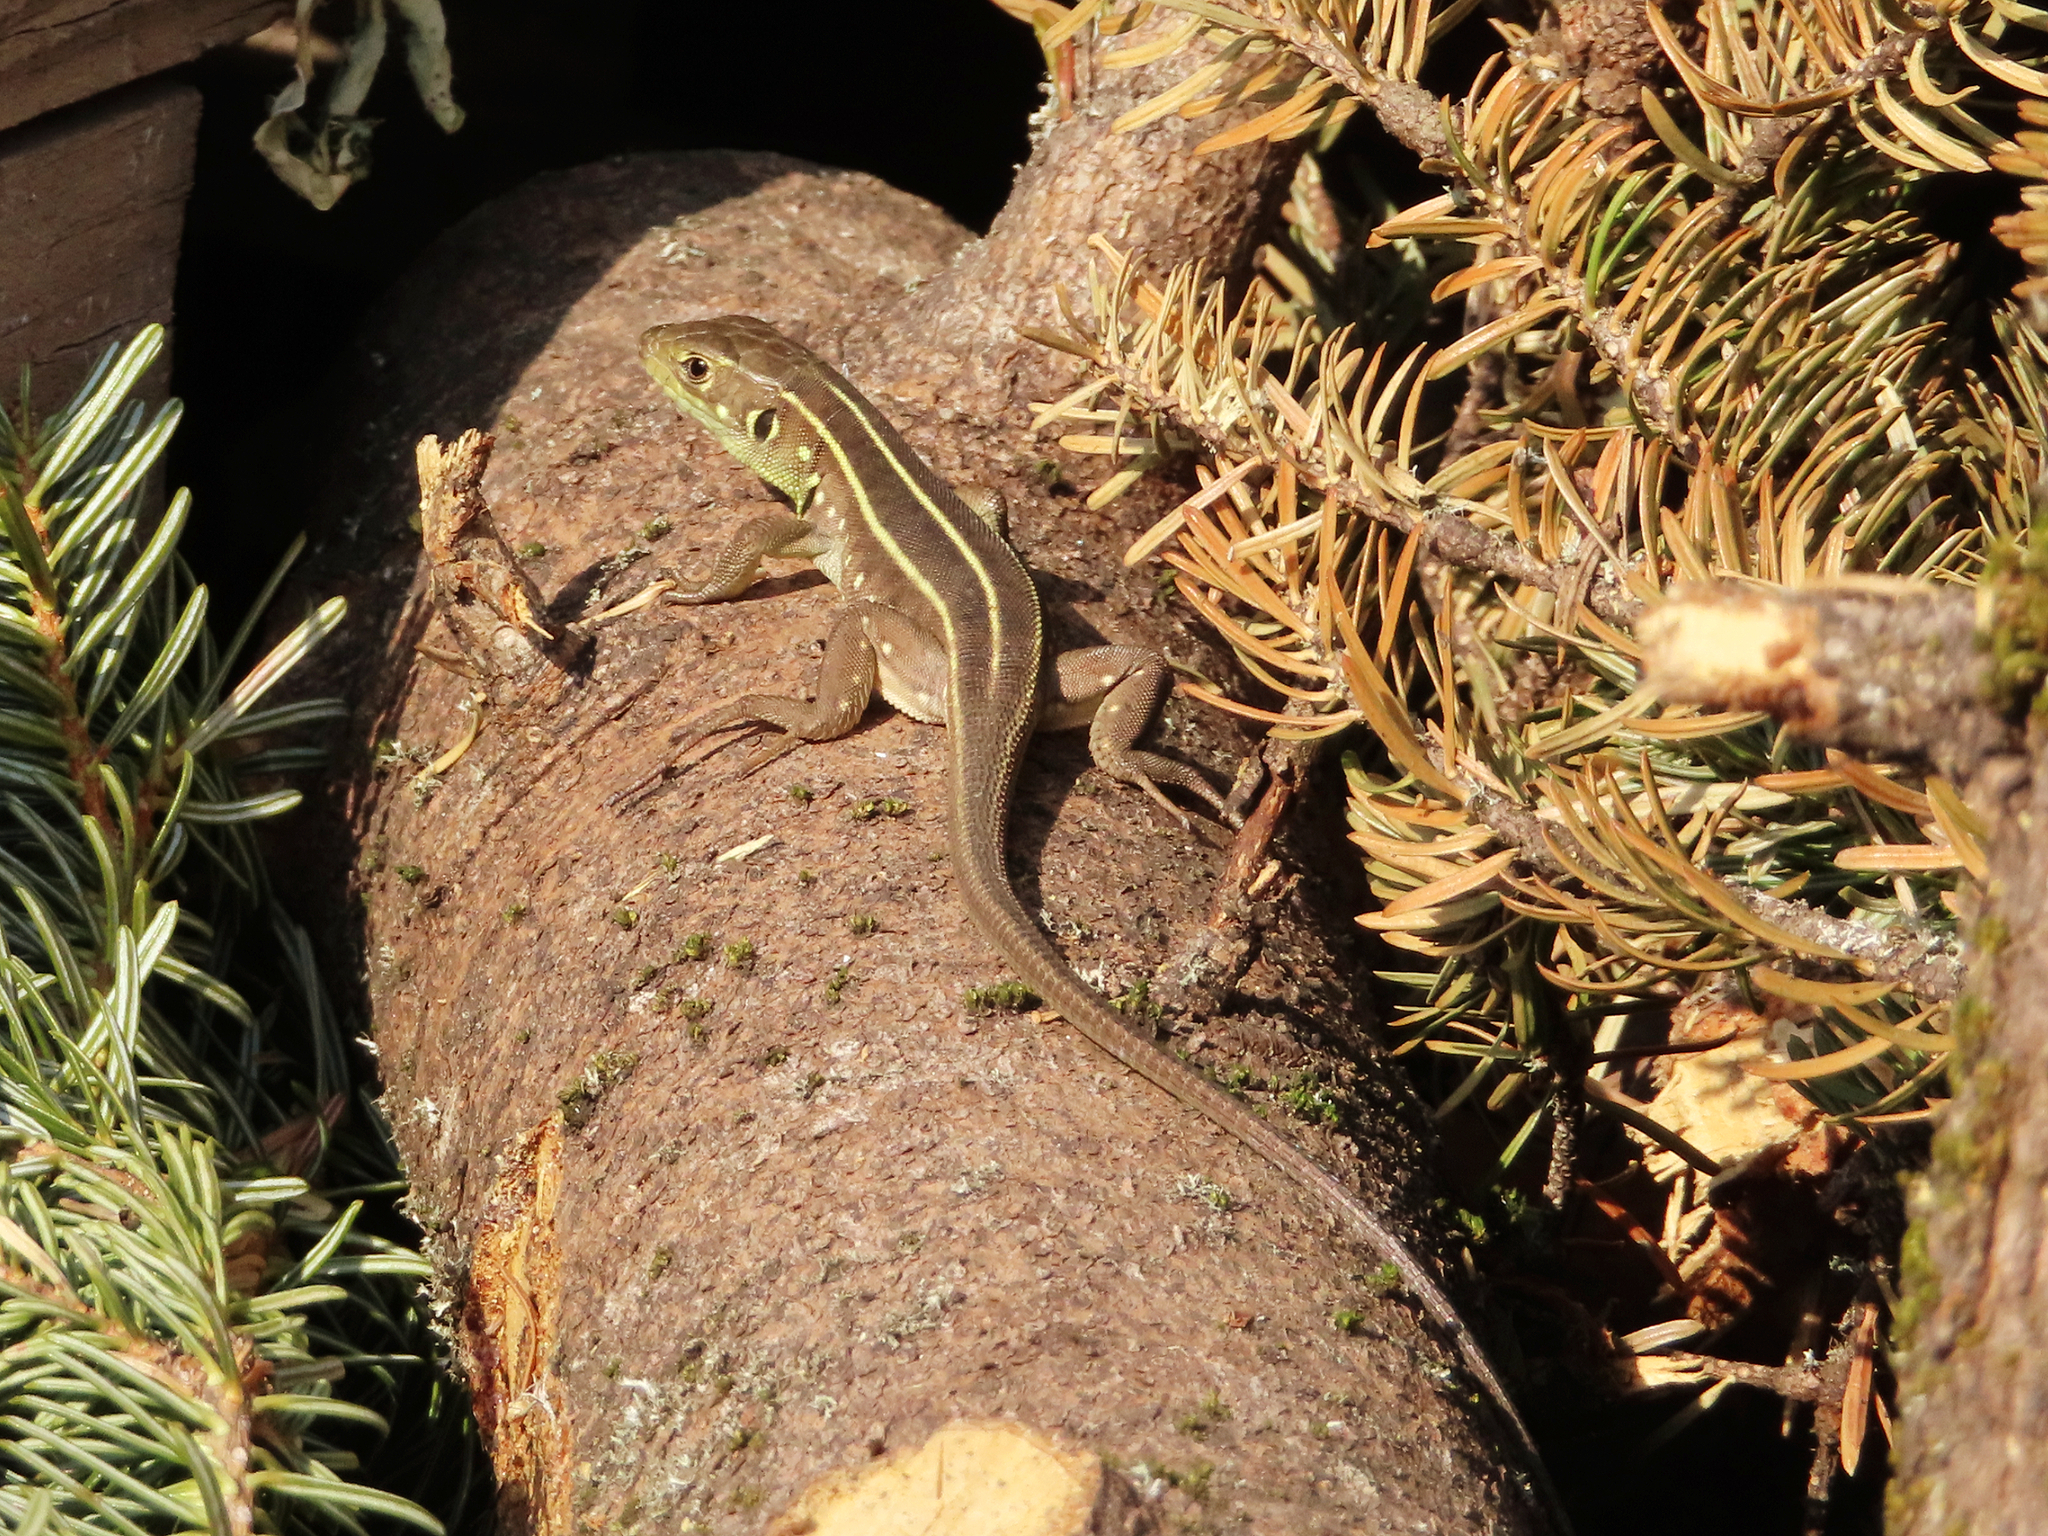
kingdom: Animalia
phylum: Chordata
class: Squamata
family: Lacertidae
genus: Lacerta
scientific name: Lacerta trilineata
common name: Balkan green lizard
